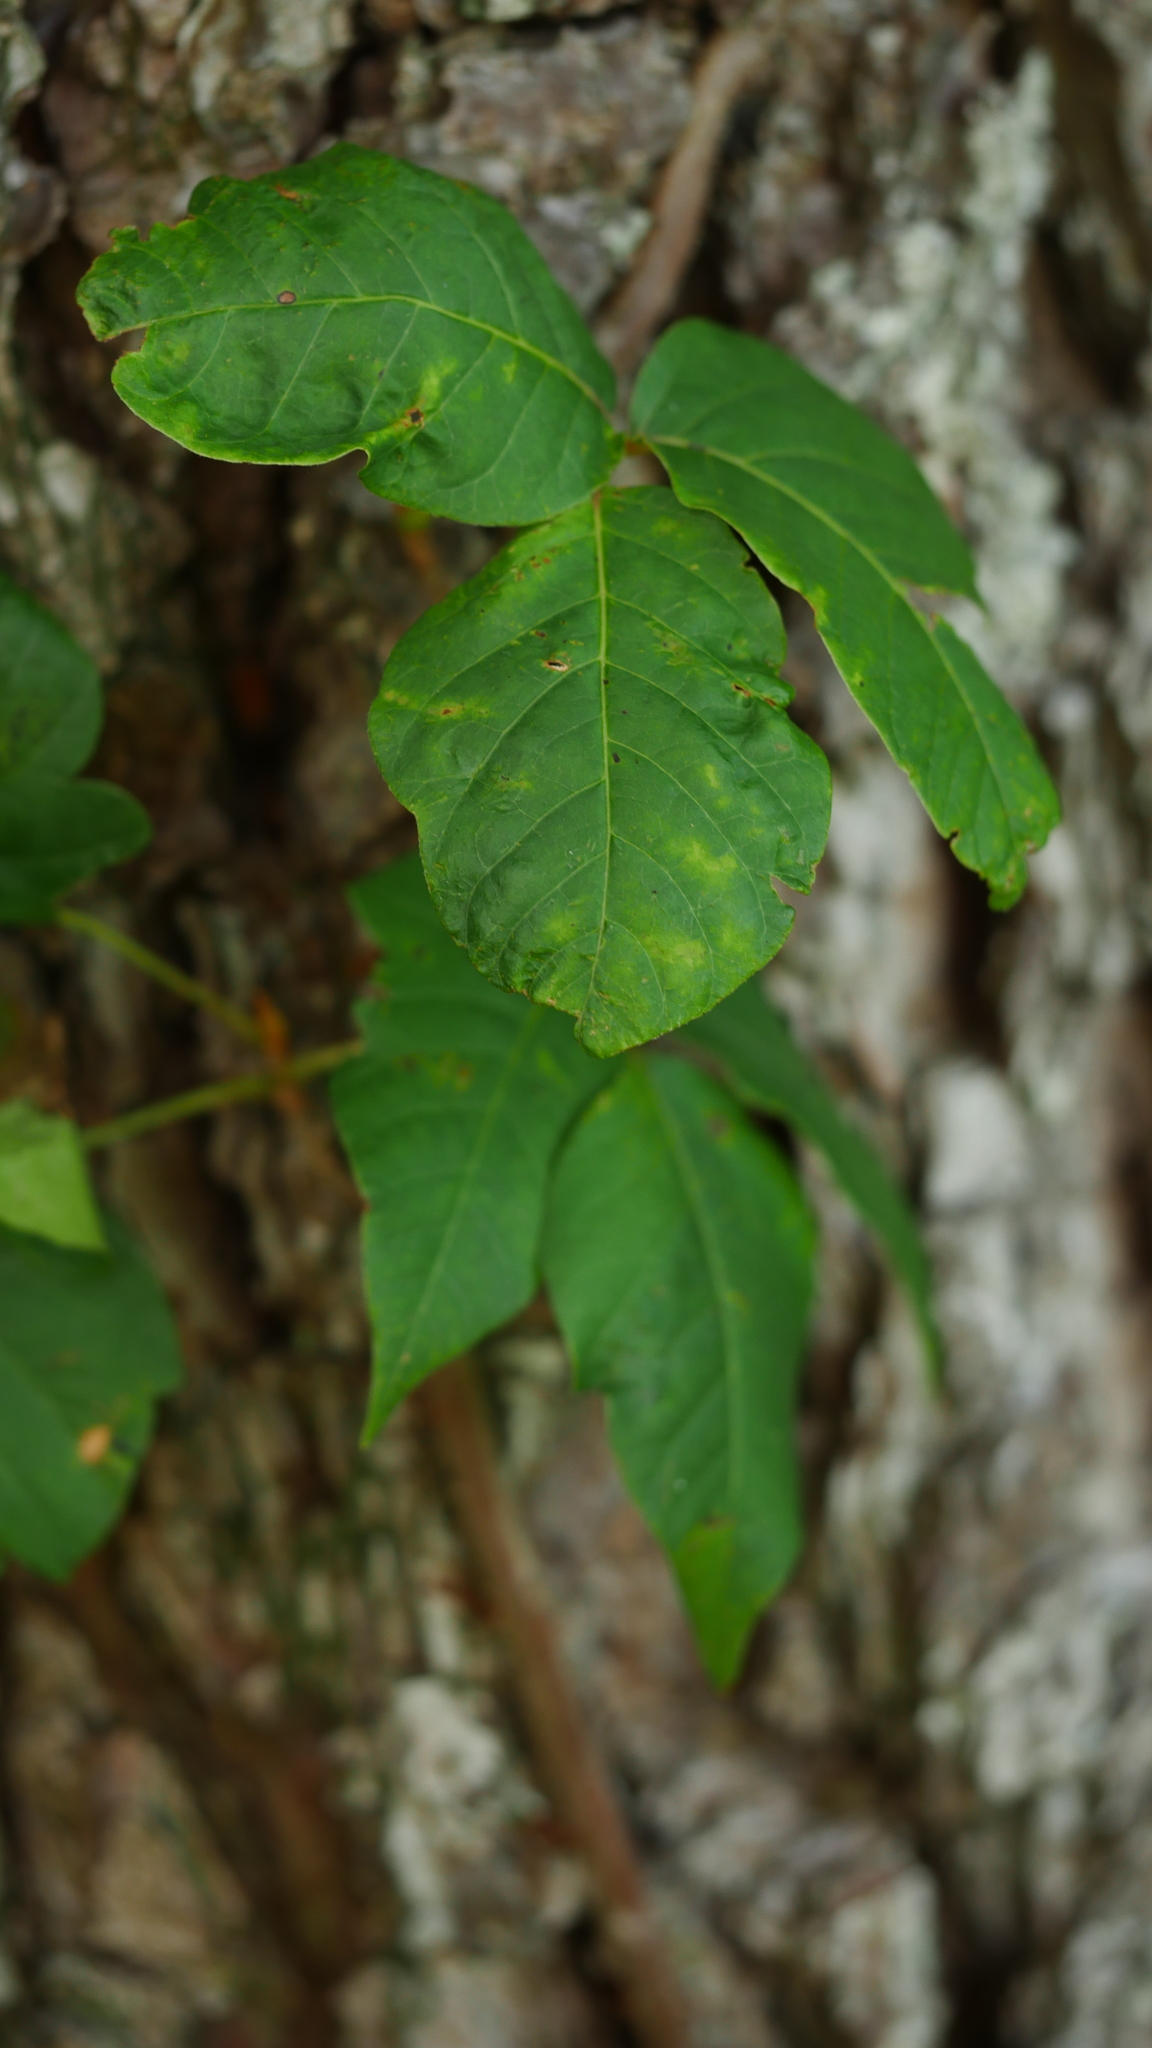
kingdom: Plantae
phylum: Tracheophyta
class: Magnoliopsida
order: Sapindales
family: Anacardiaceae
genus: Toxicodendron
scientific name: Toxicodendron radicans
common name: Poison ivy
